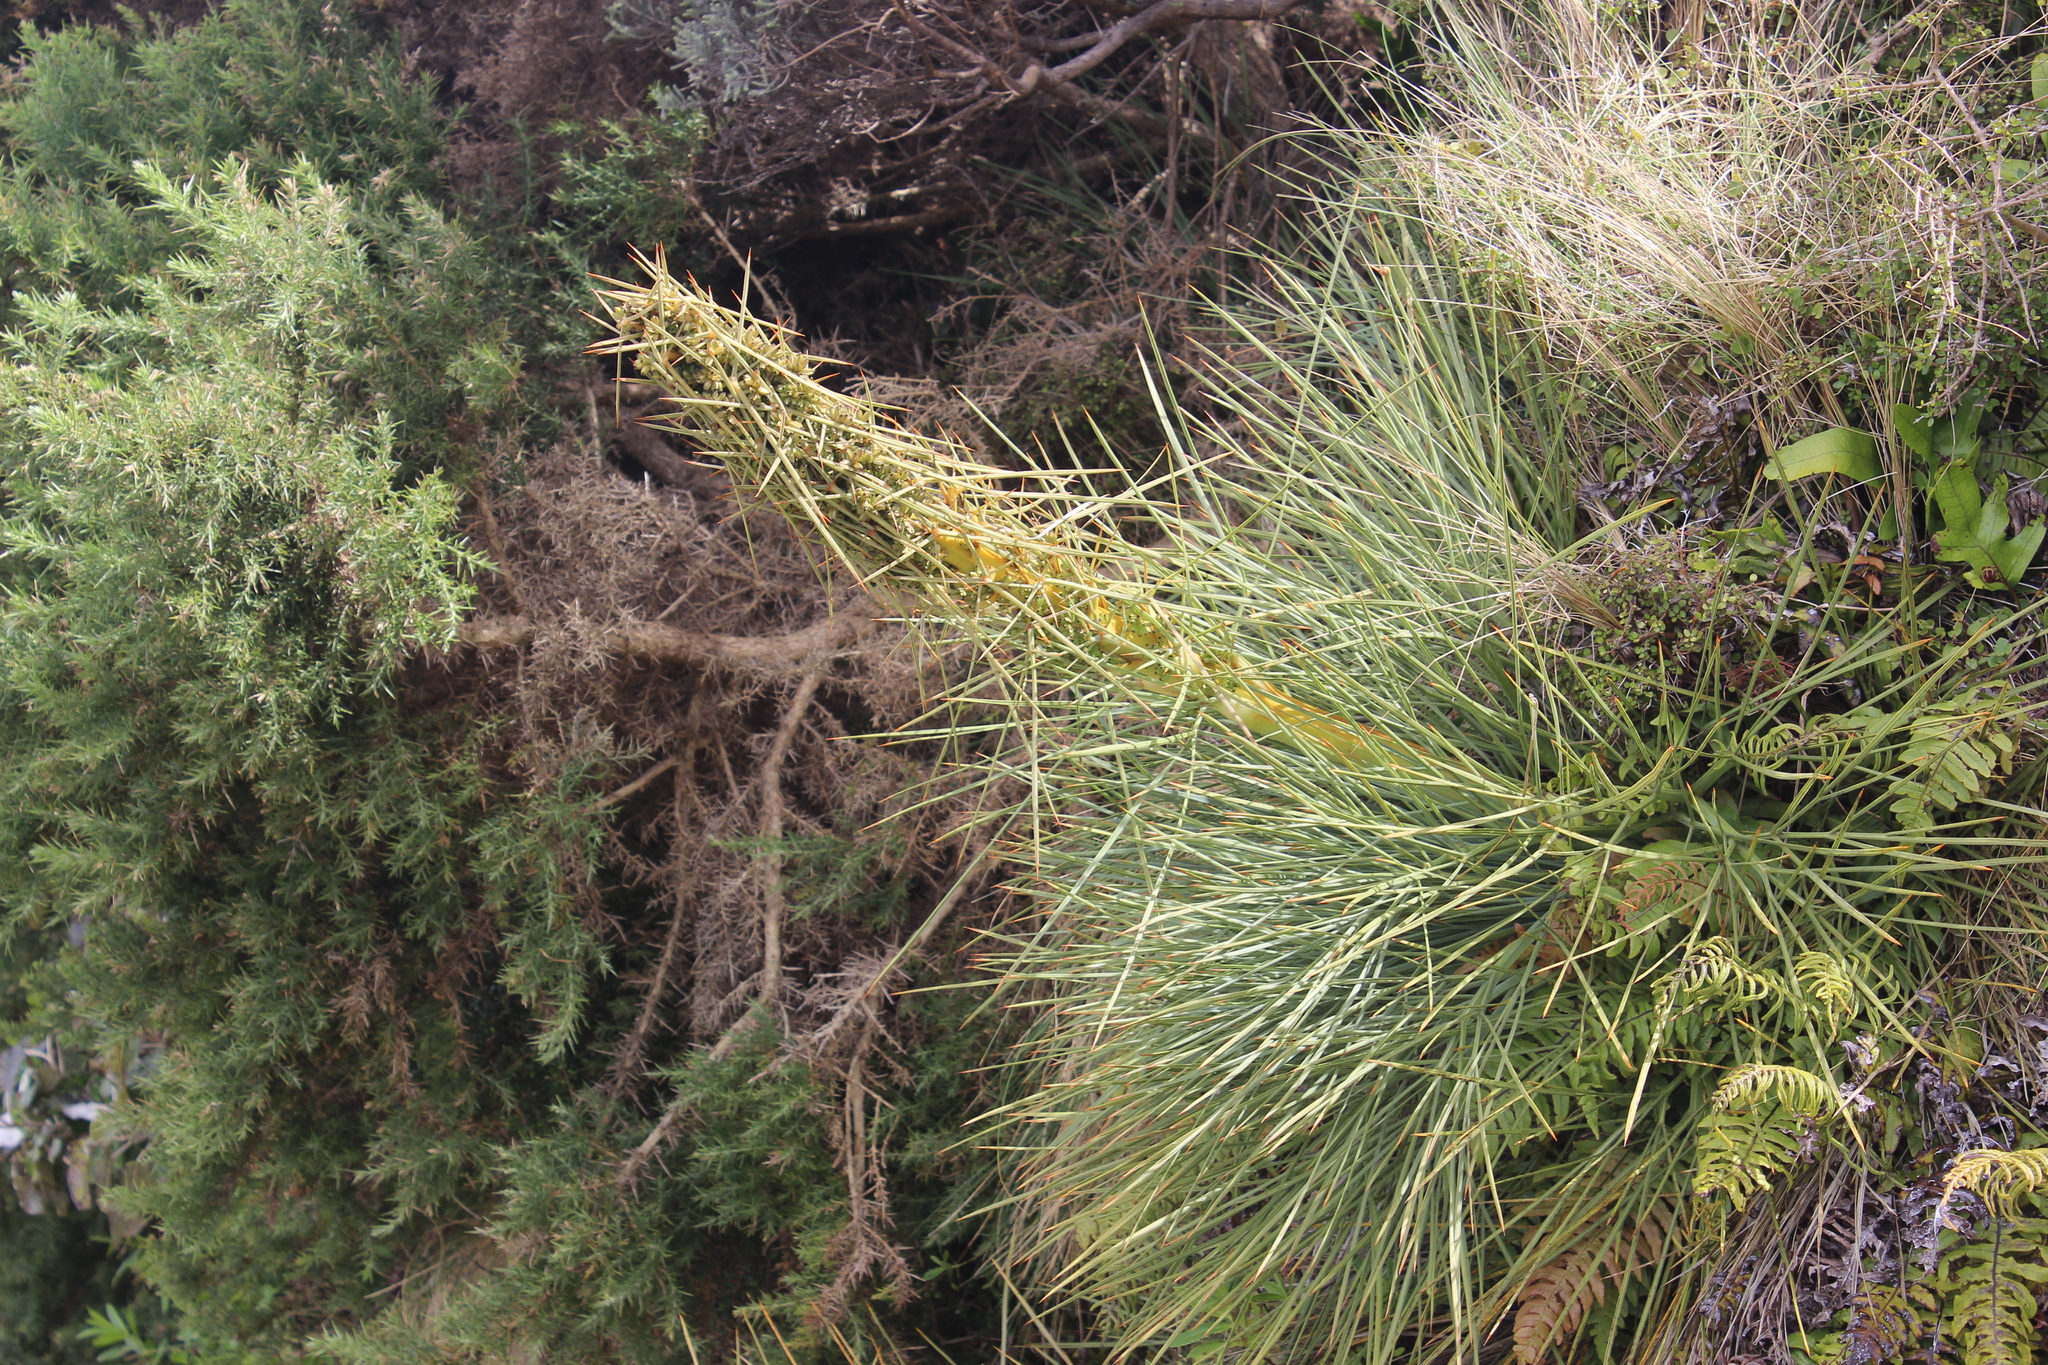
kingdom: Plantae
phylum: Tracheophyta
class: Magnoliopsida
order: Apiales
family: Apiaceae
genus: Aciphylla
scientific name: Aciphylla squarrosa
